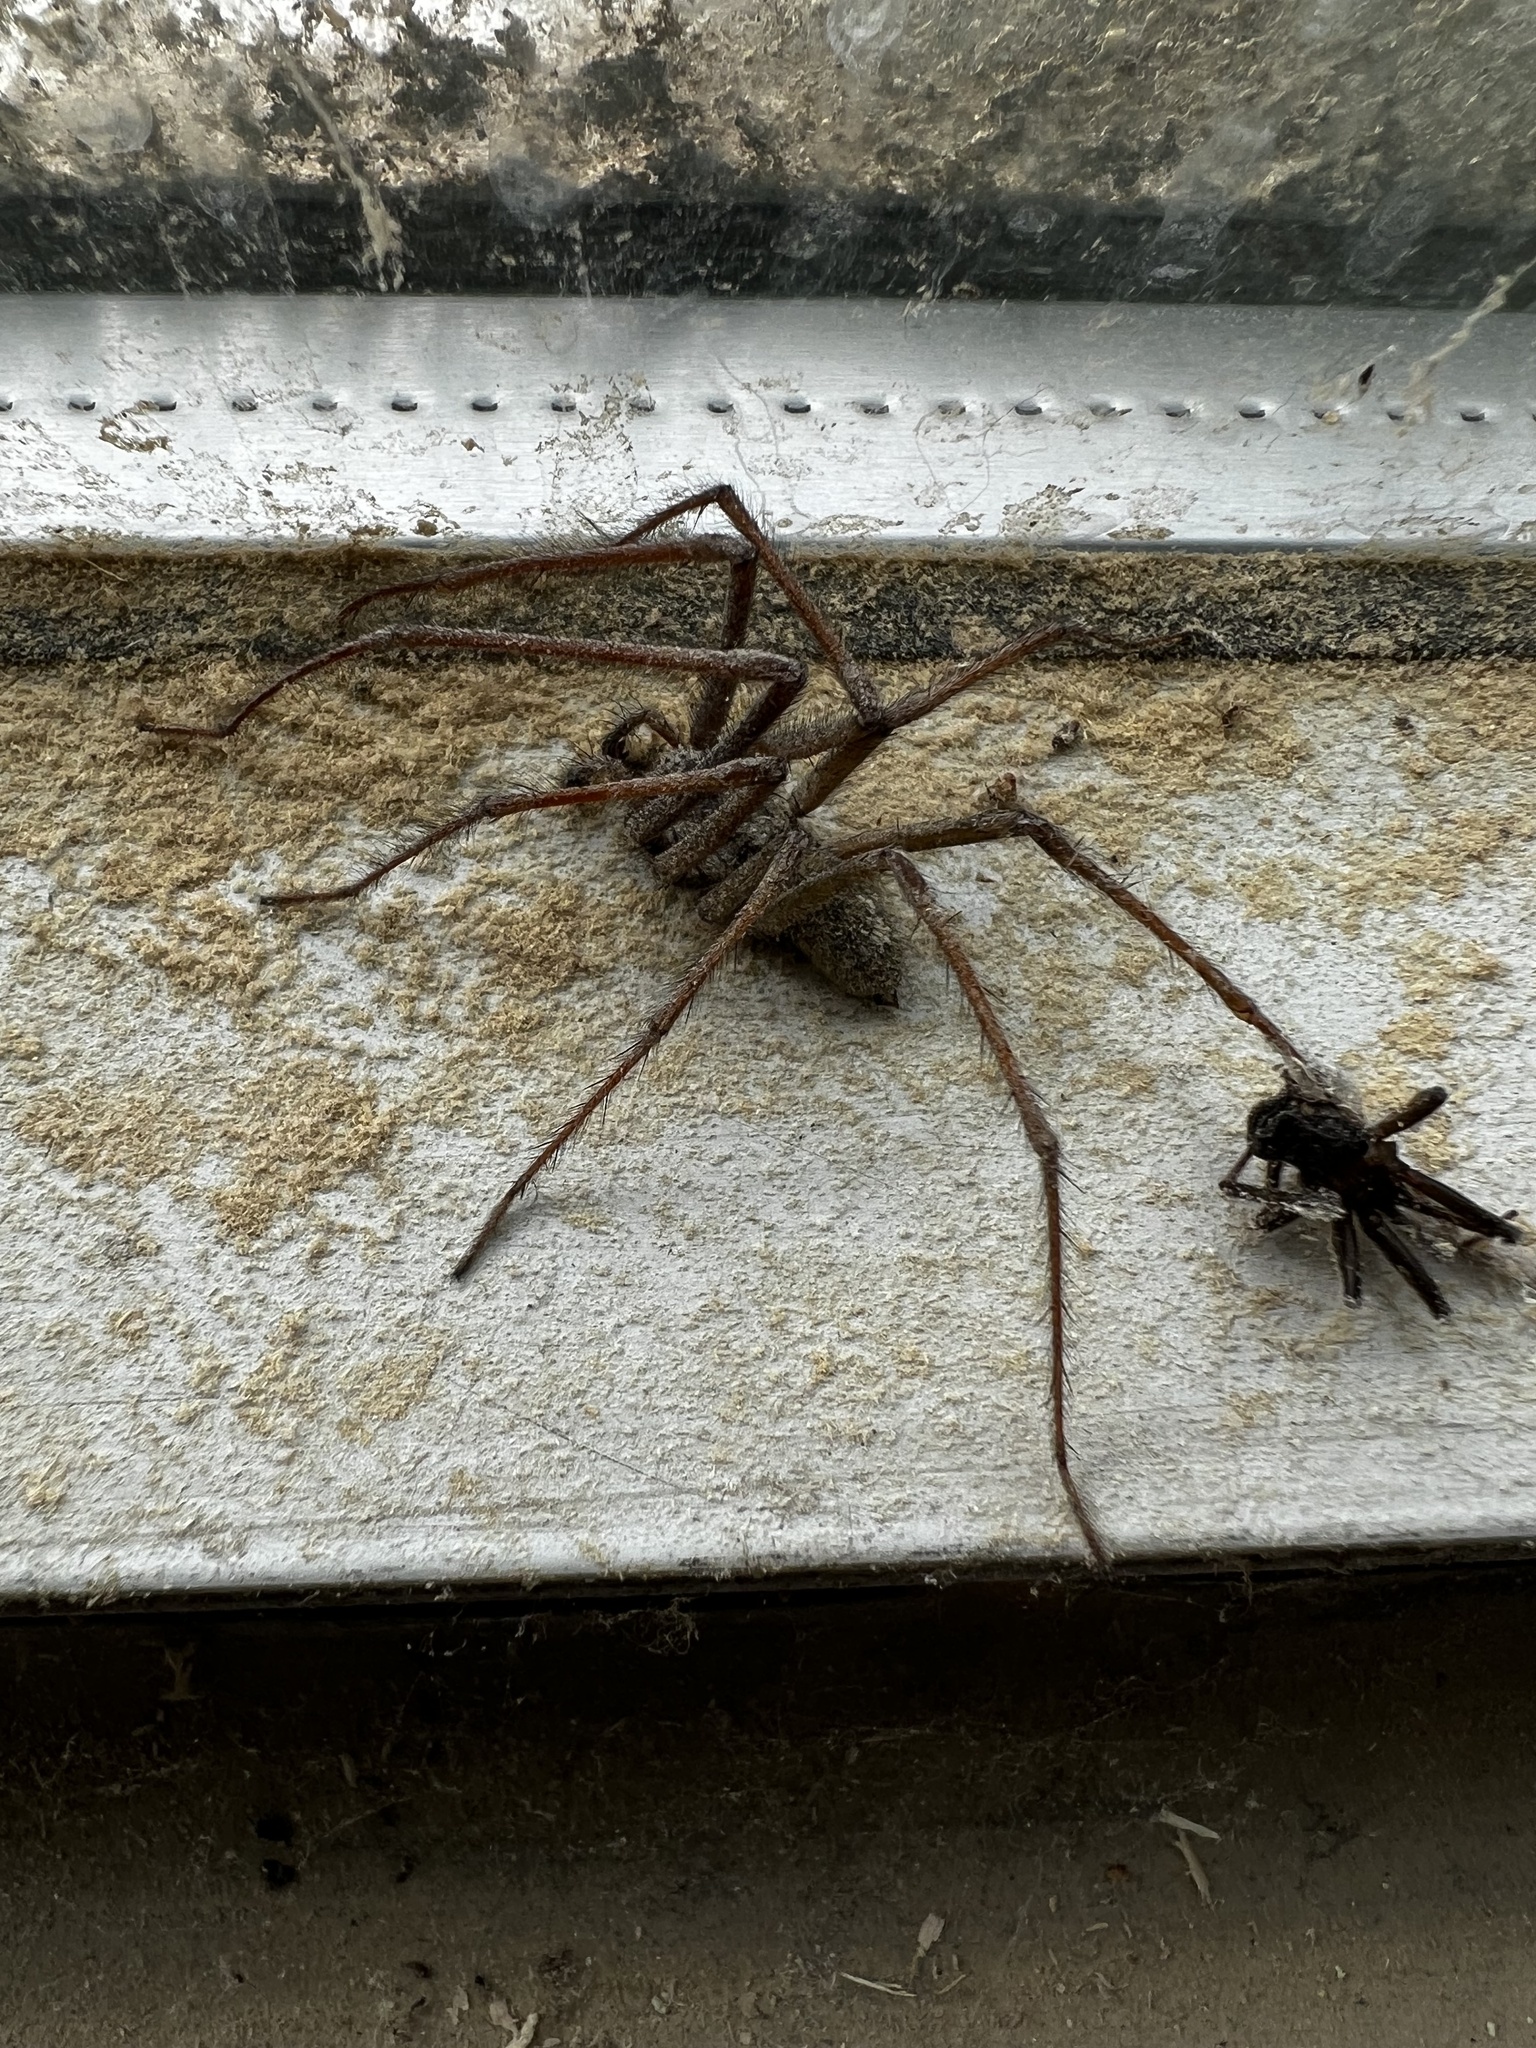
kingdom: Animalia
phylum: Arthropoda
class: Arachnida
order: Araneae
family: Agelenidae
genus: Eratigena
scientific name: Eratigena duellica
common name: Giant house spider
